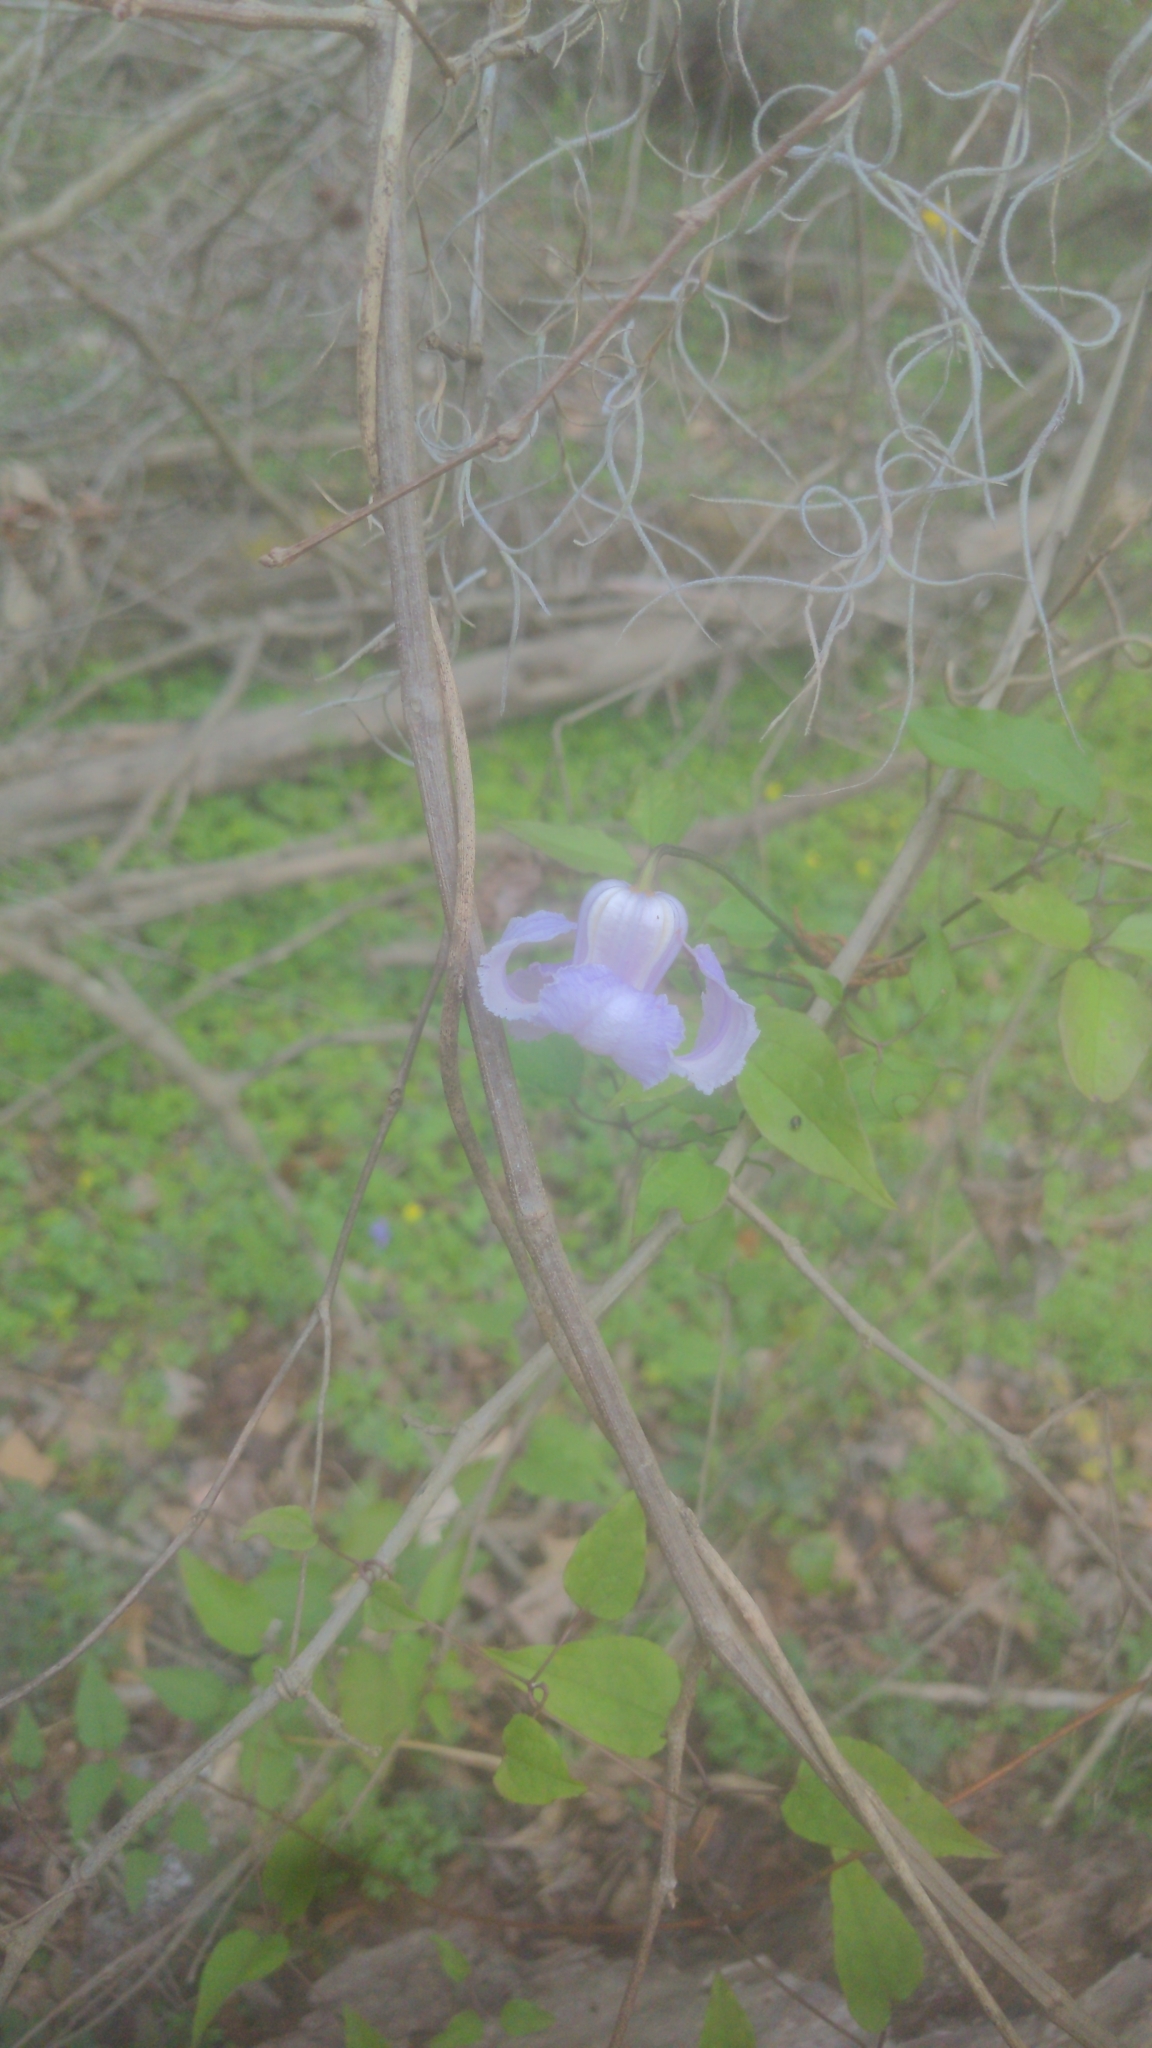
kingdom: Plantae
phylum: Tracheophyta
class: Magnoliopsida
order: Ranunculales
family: Ranunculaceae
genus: Clematis
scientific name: Clematis crispa
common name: Curly clematis
